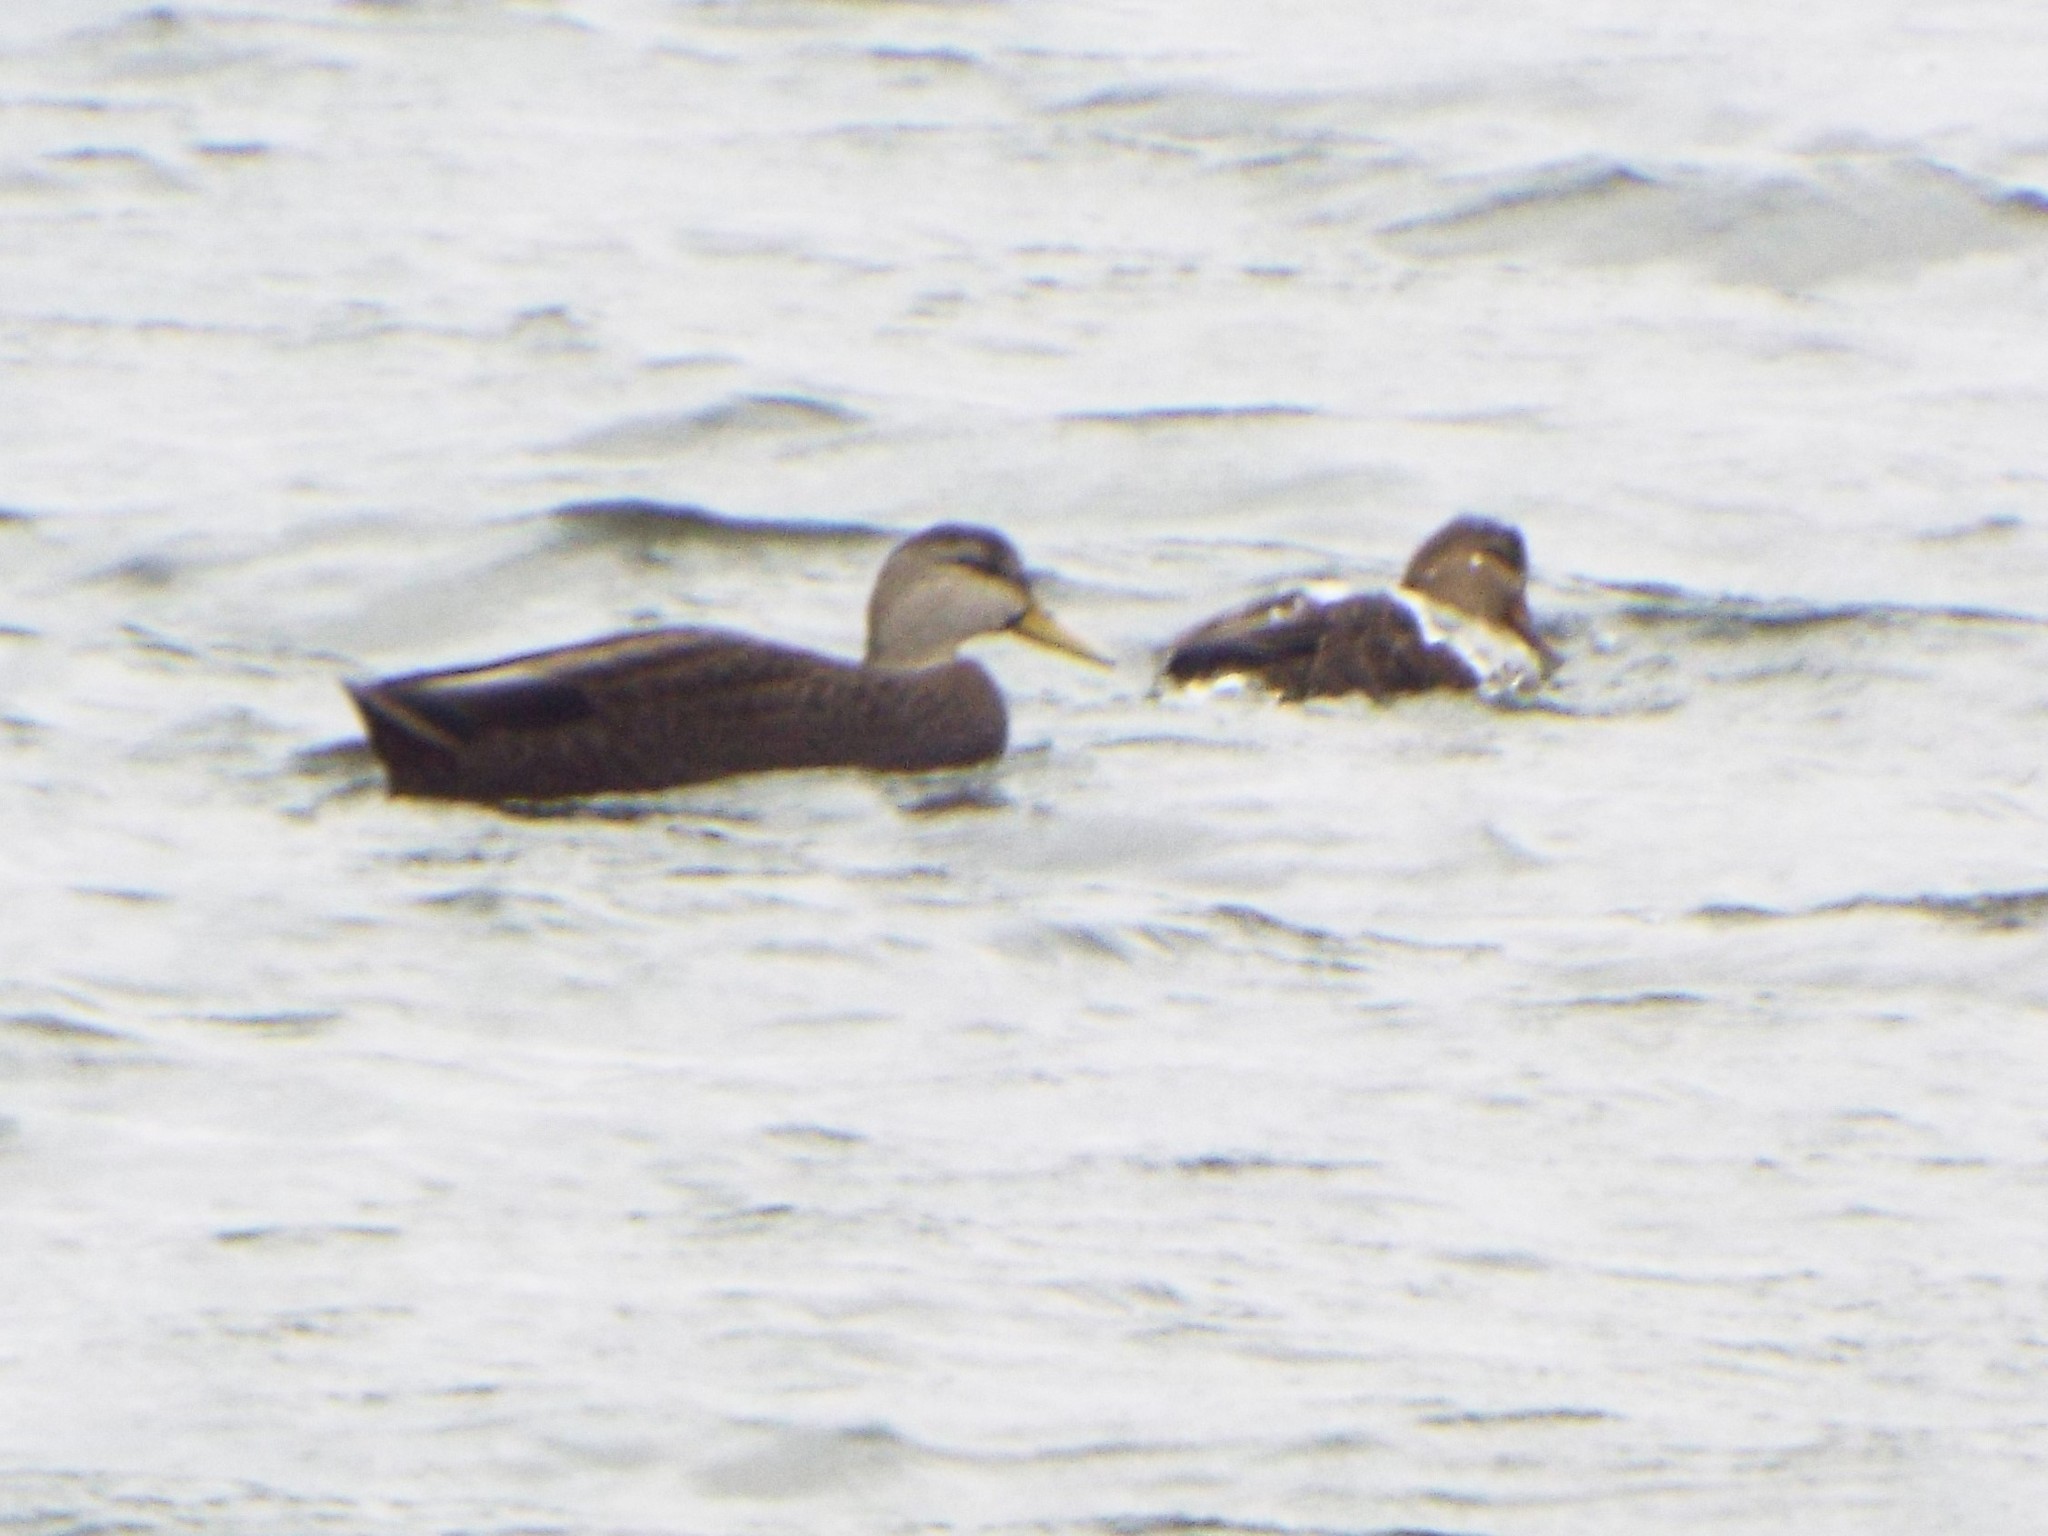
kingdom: Animalia
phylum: Chordata
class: Aves
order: Anseriformes
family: Anatidae
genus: Anas
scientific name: Anas rubripes
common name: American black duck
